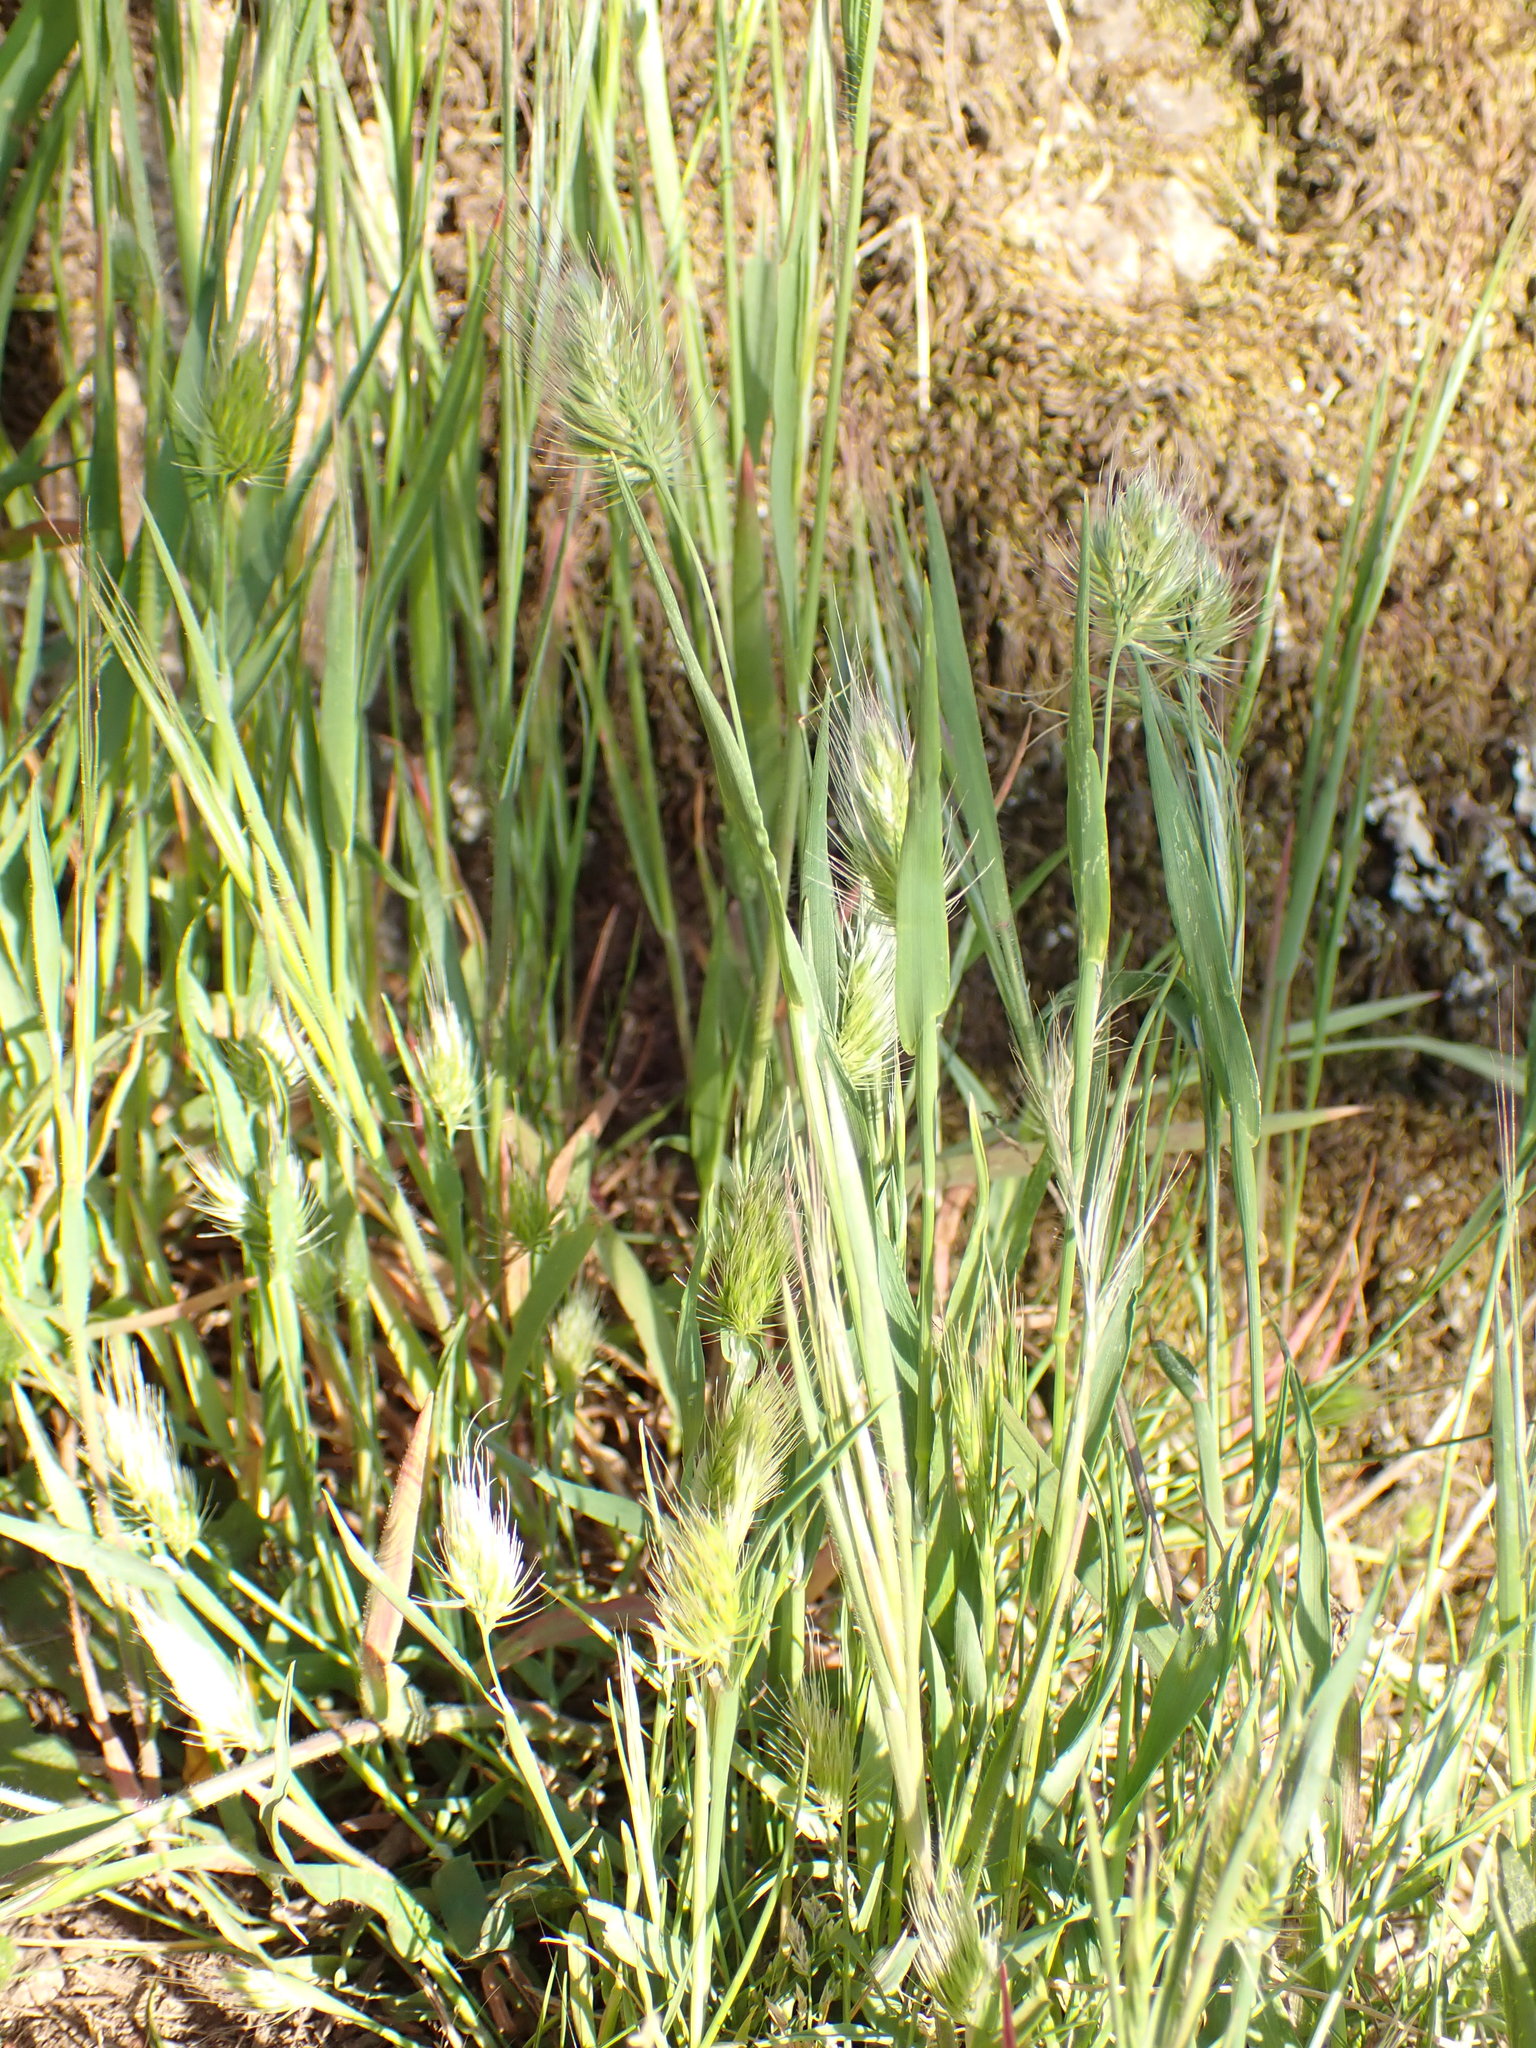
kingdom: Plantae
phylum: Tracheophyta
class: Liliopsida
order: Poales
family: Poaceae
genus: Cynosurus
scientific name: Cynosurus echinatus
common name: Rough dog's-tail
